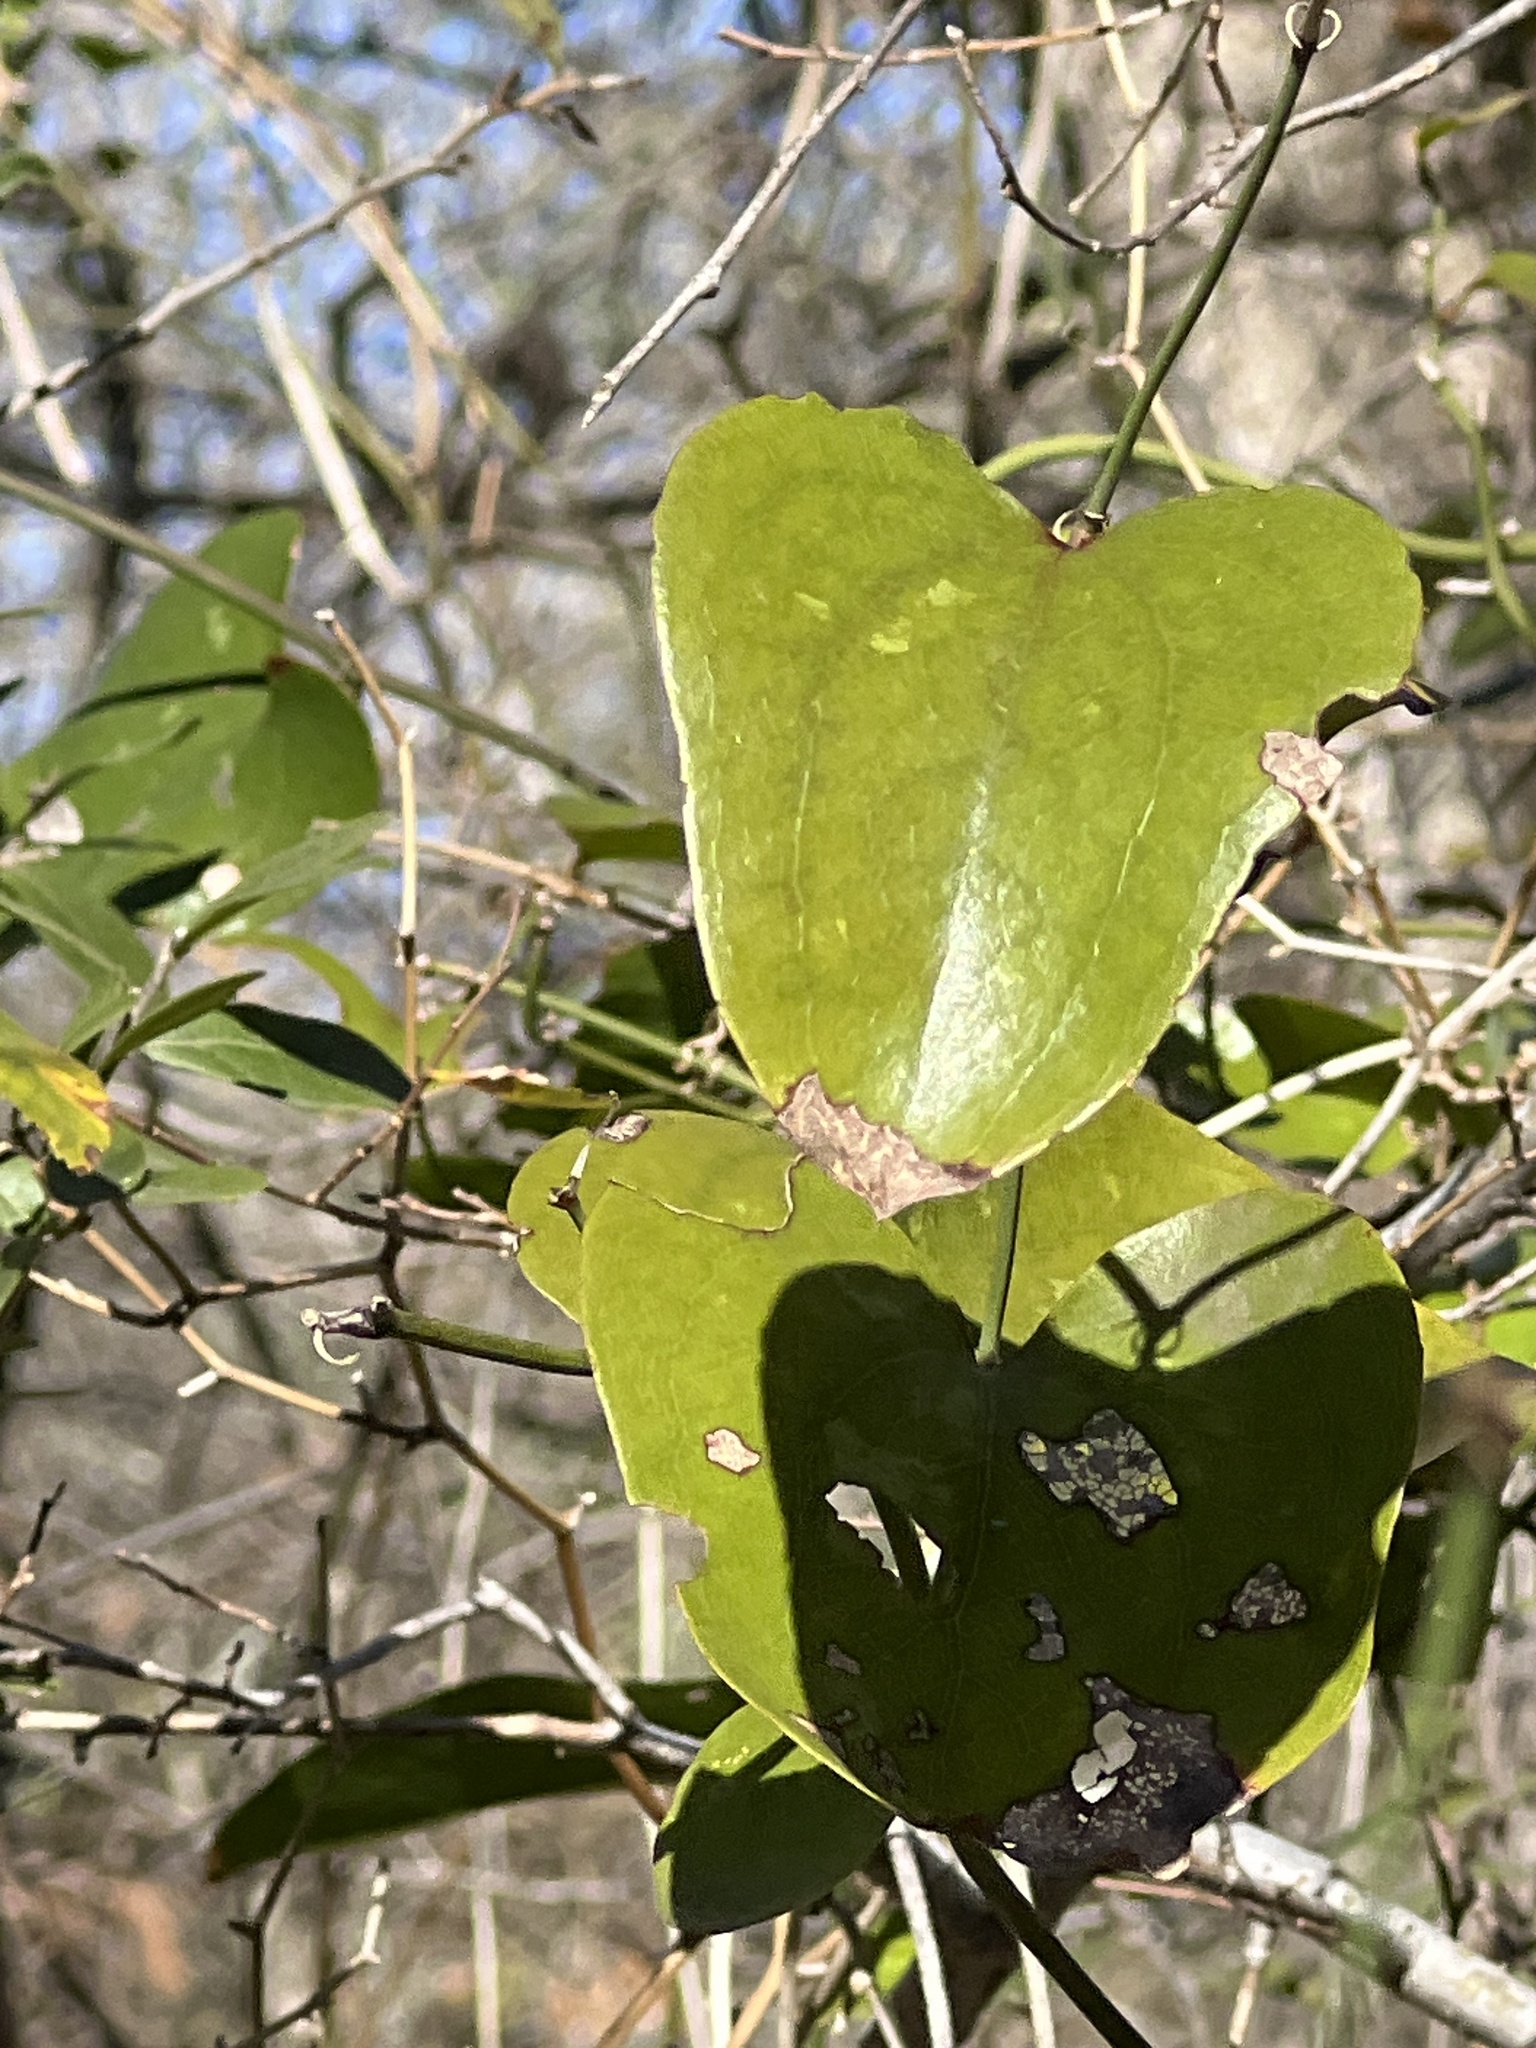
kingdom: Plantae
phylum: Tracheophyta
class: Liliopsida
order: Liliales
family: Smilacaceae
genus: Smilax
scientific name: Smilax bona-nox
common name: Catbrier
